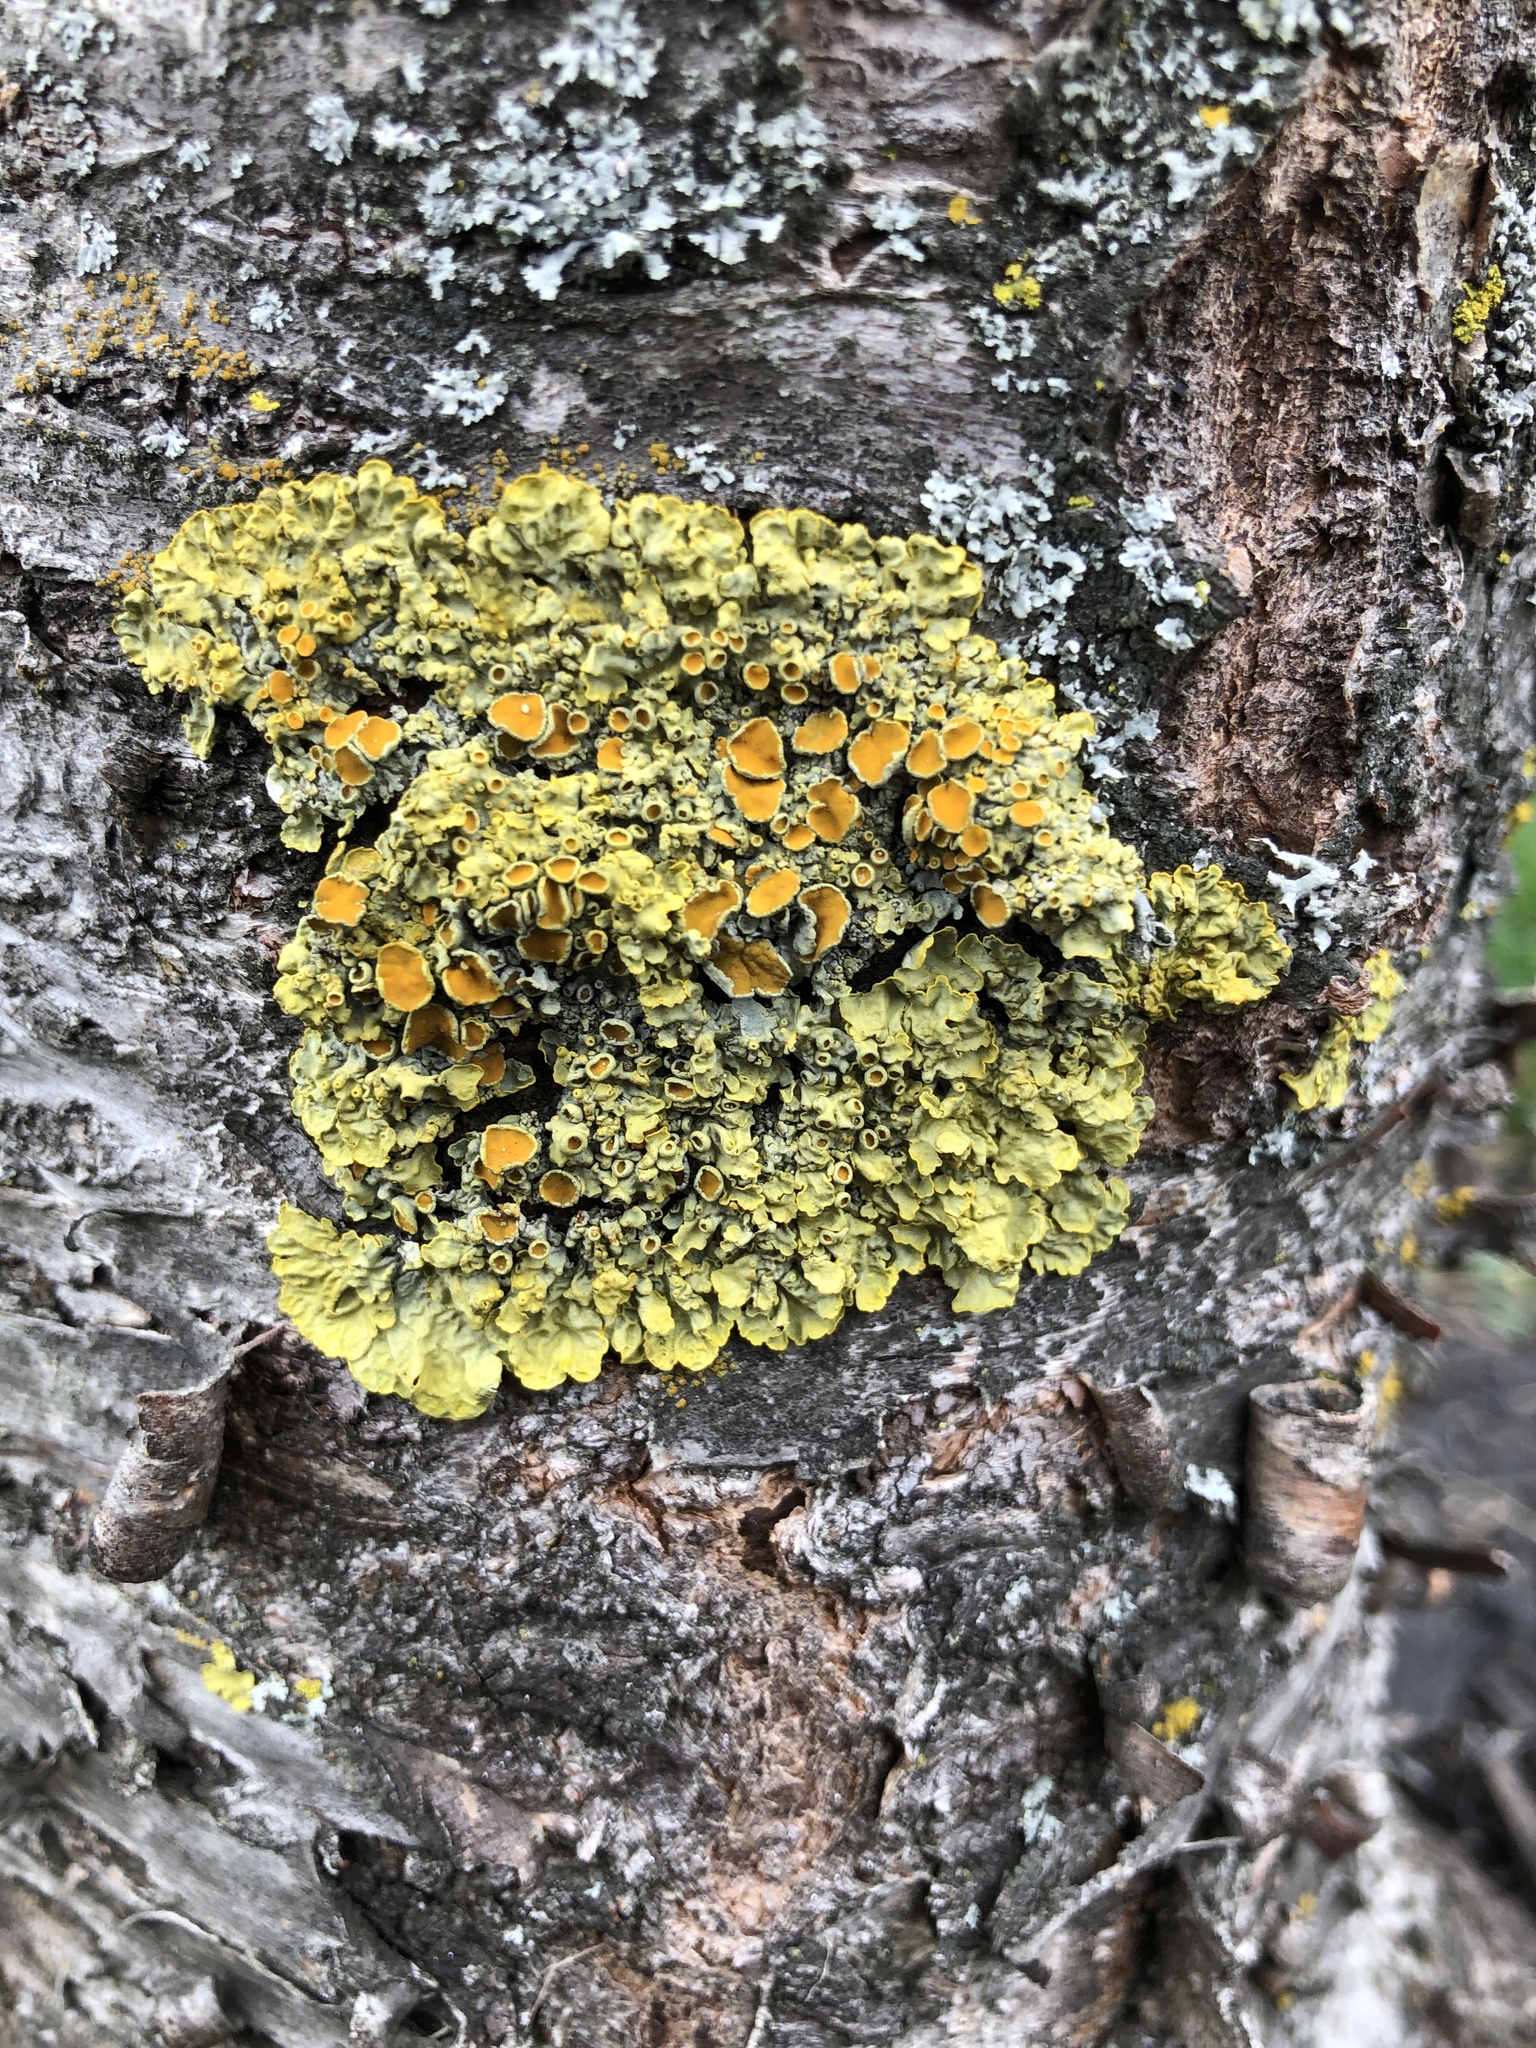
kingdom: Fungi
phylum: Ascomycota
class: Lecanoromycetes
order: Teloschistales
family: Teloschistaceae
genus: Xanthoria
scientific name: Xanthoria parietina
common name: Common orange lichen
